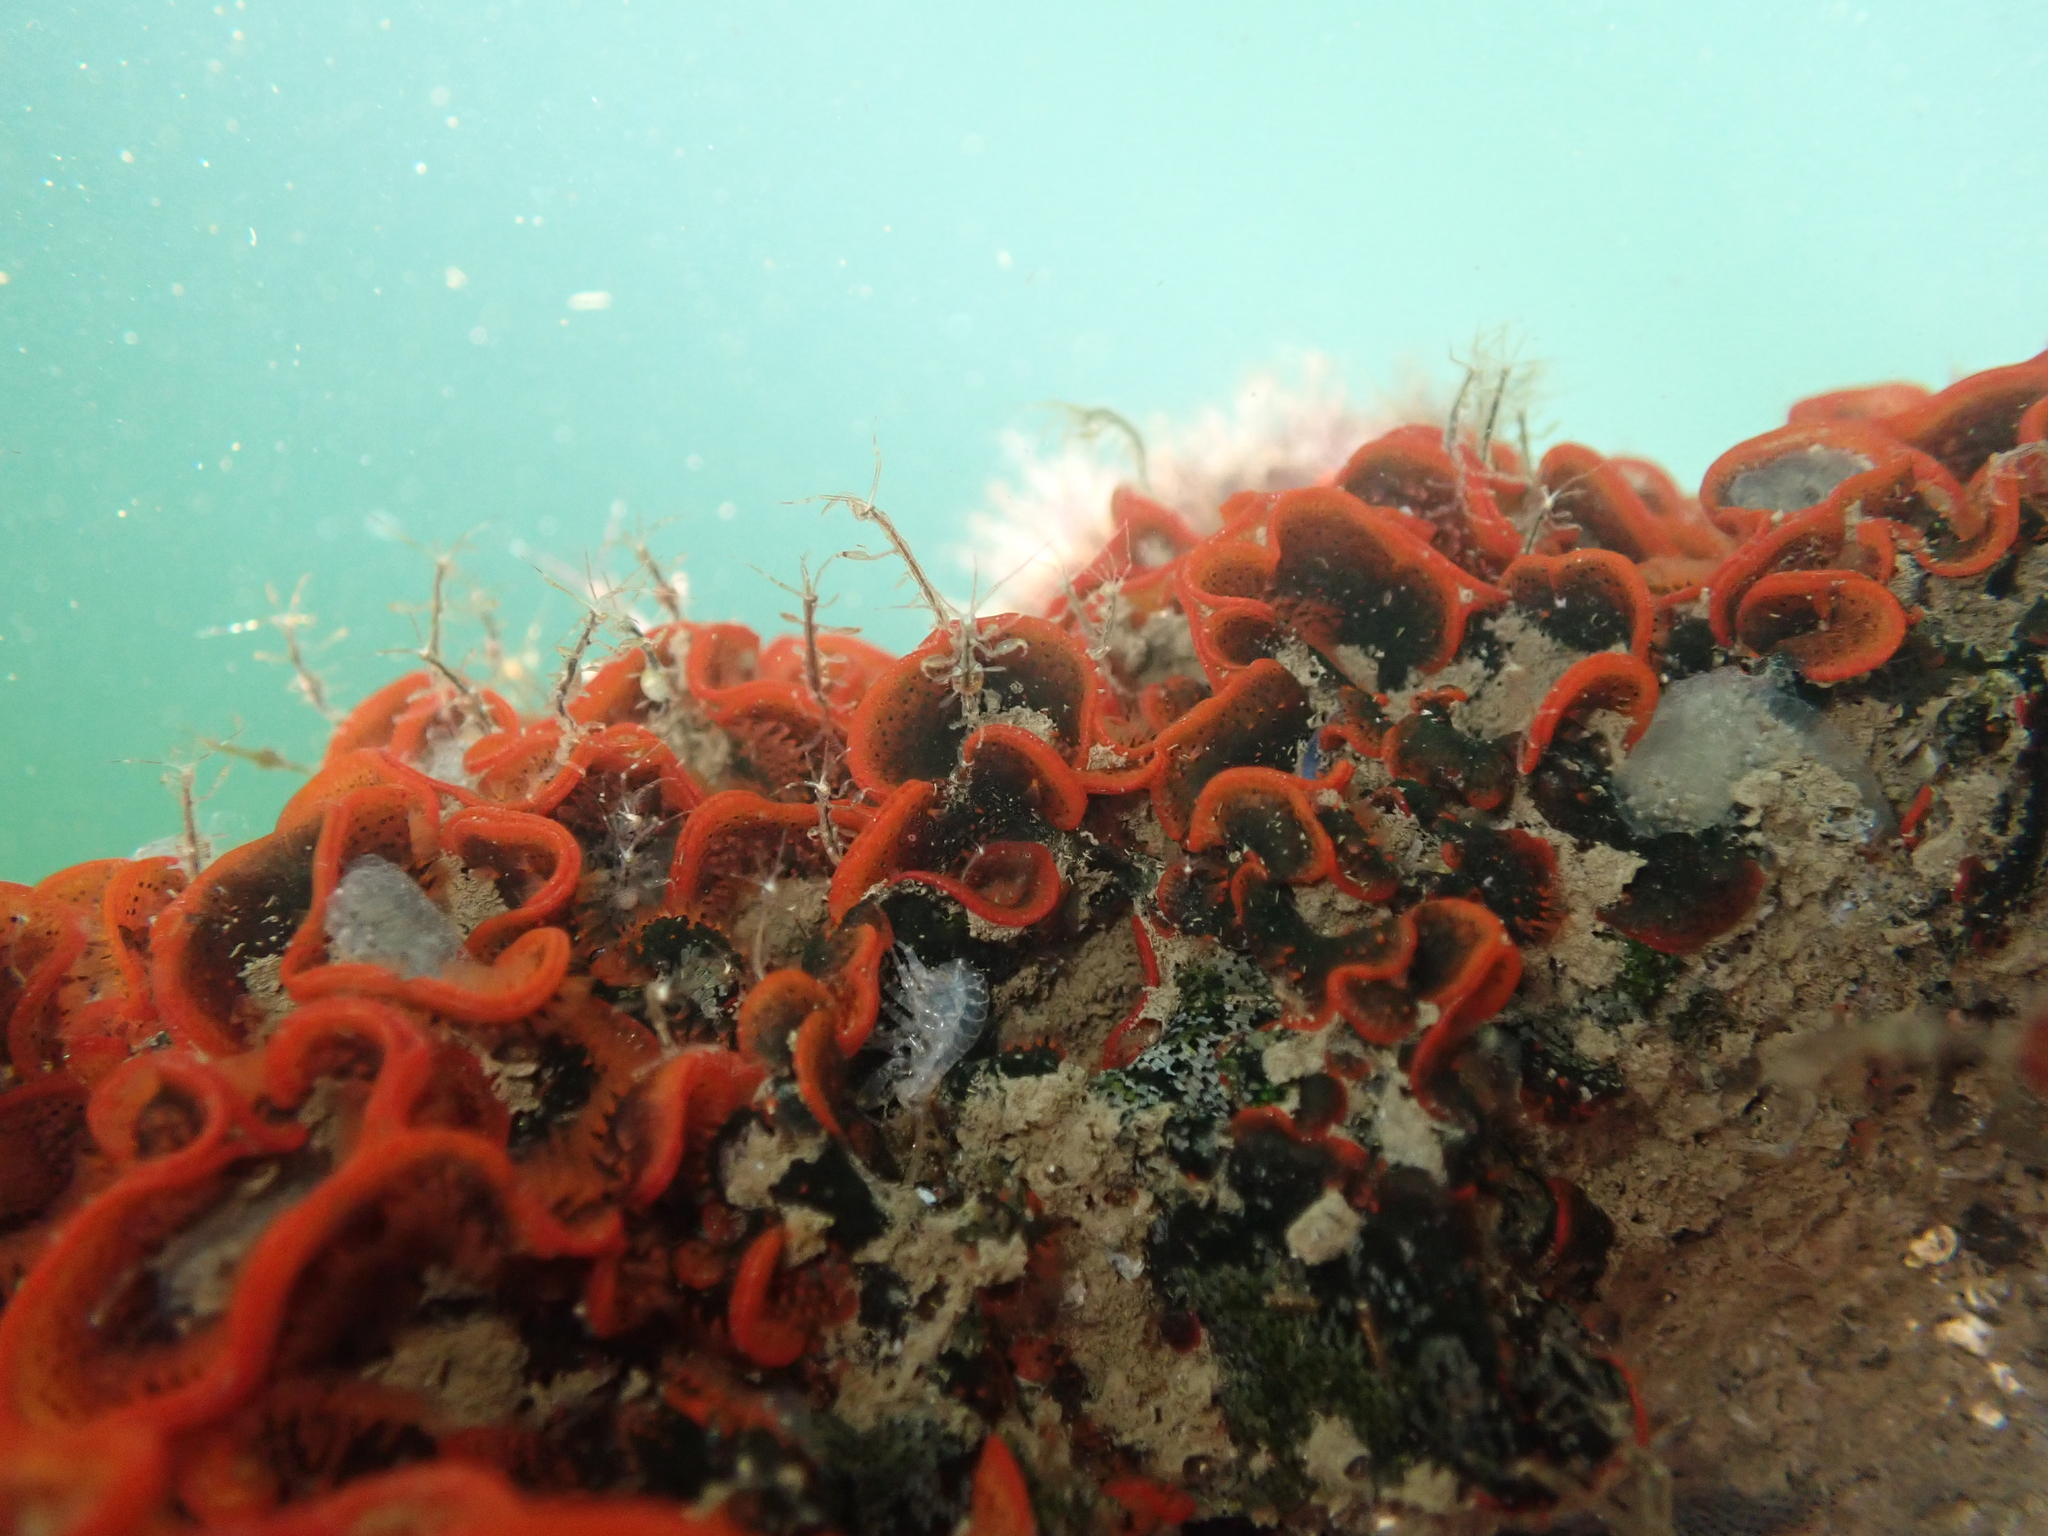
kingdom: Animalia
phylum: Bryozoa
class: Gymnolaemata
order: Cheilostomatida
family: Watersiporidae
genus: Watersipora
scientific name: Watersipora subtorquata
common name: Bryozoan
